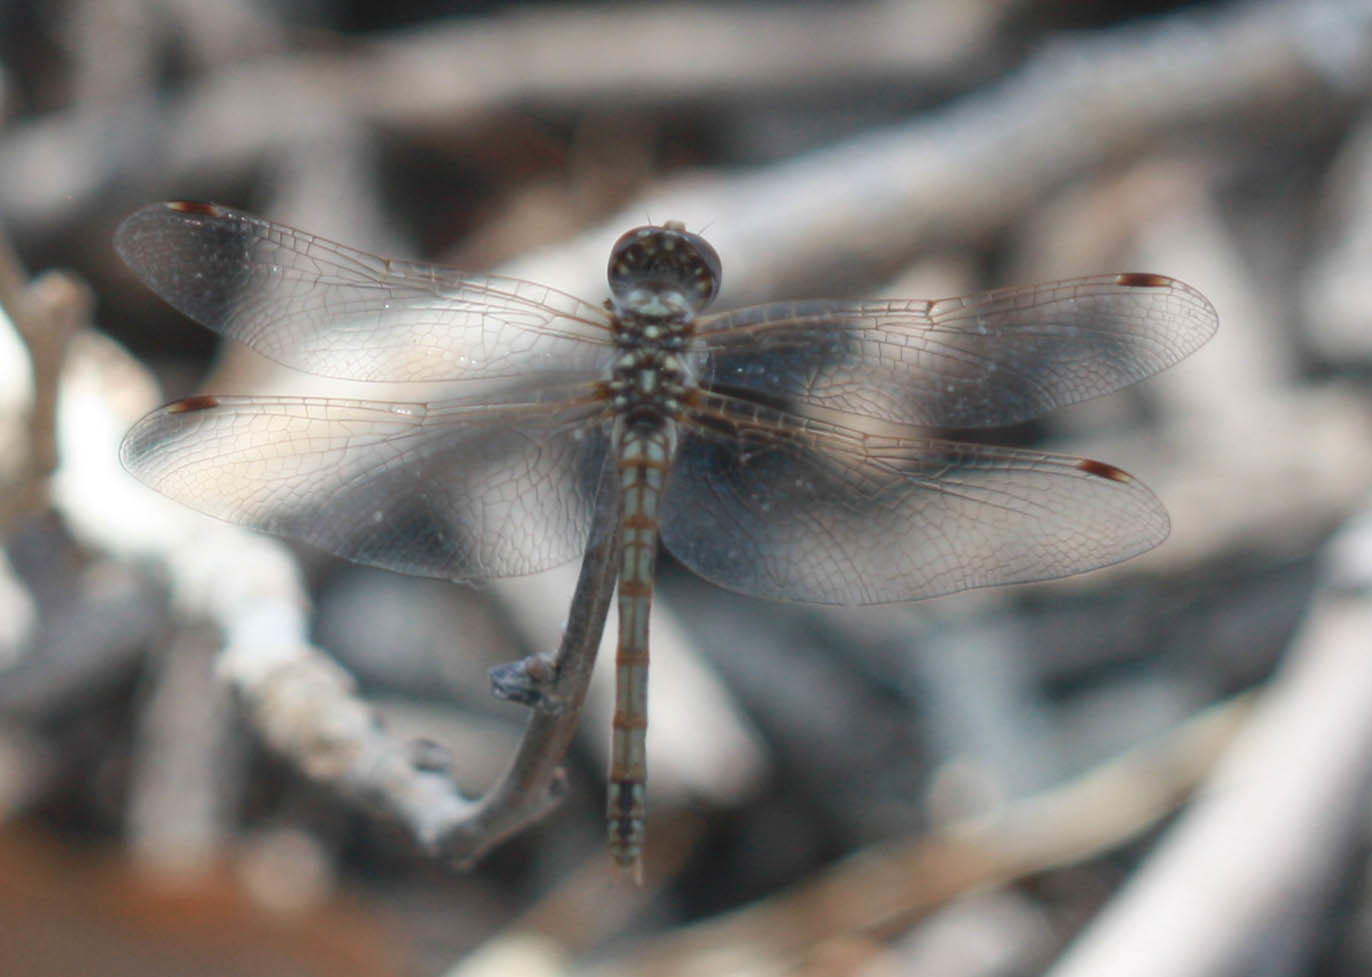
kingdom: Animalia
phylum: Arthropoda
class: Insecta
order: Odonata
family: Libellulidae
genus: Sympetrum
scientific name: Sympetrum corruptum
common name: Variegated meadowhawk
